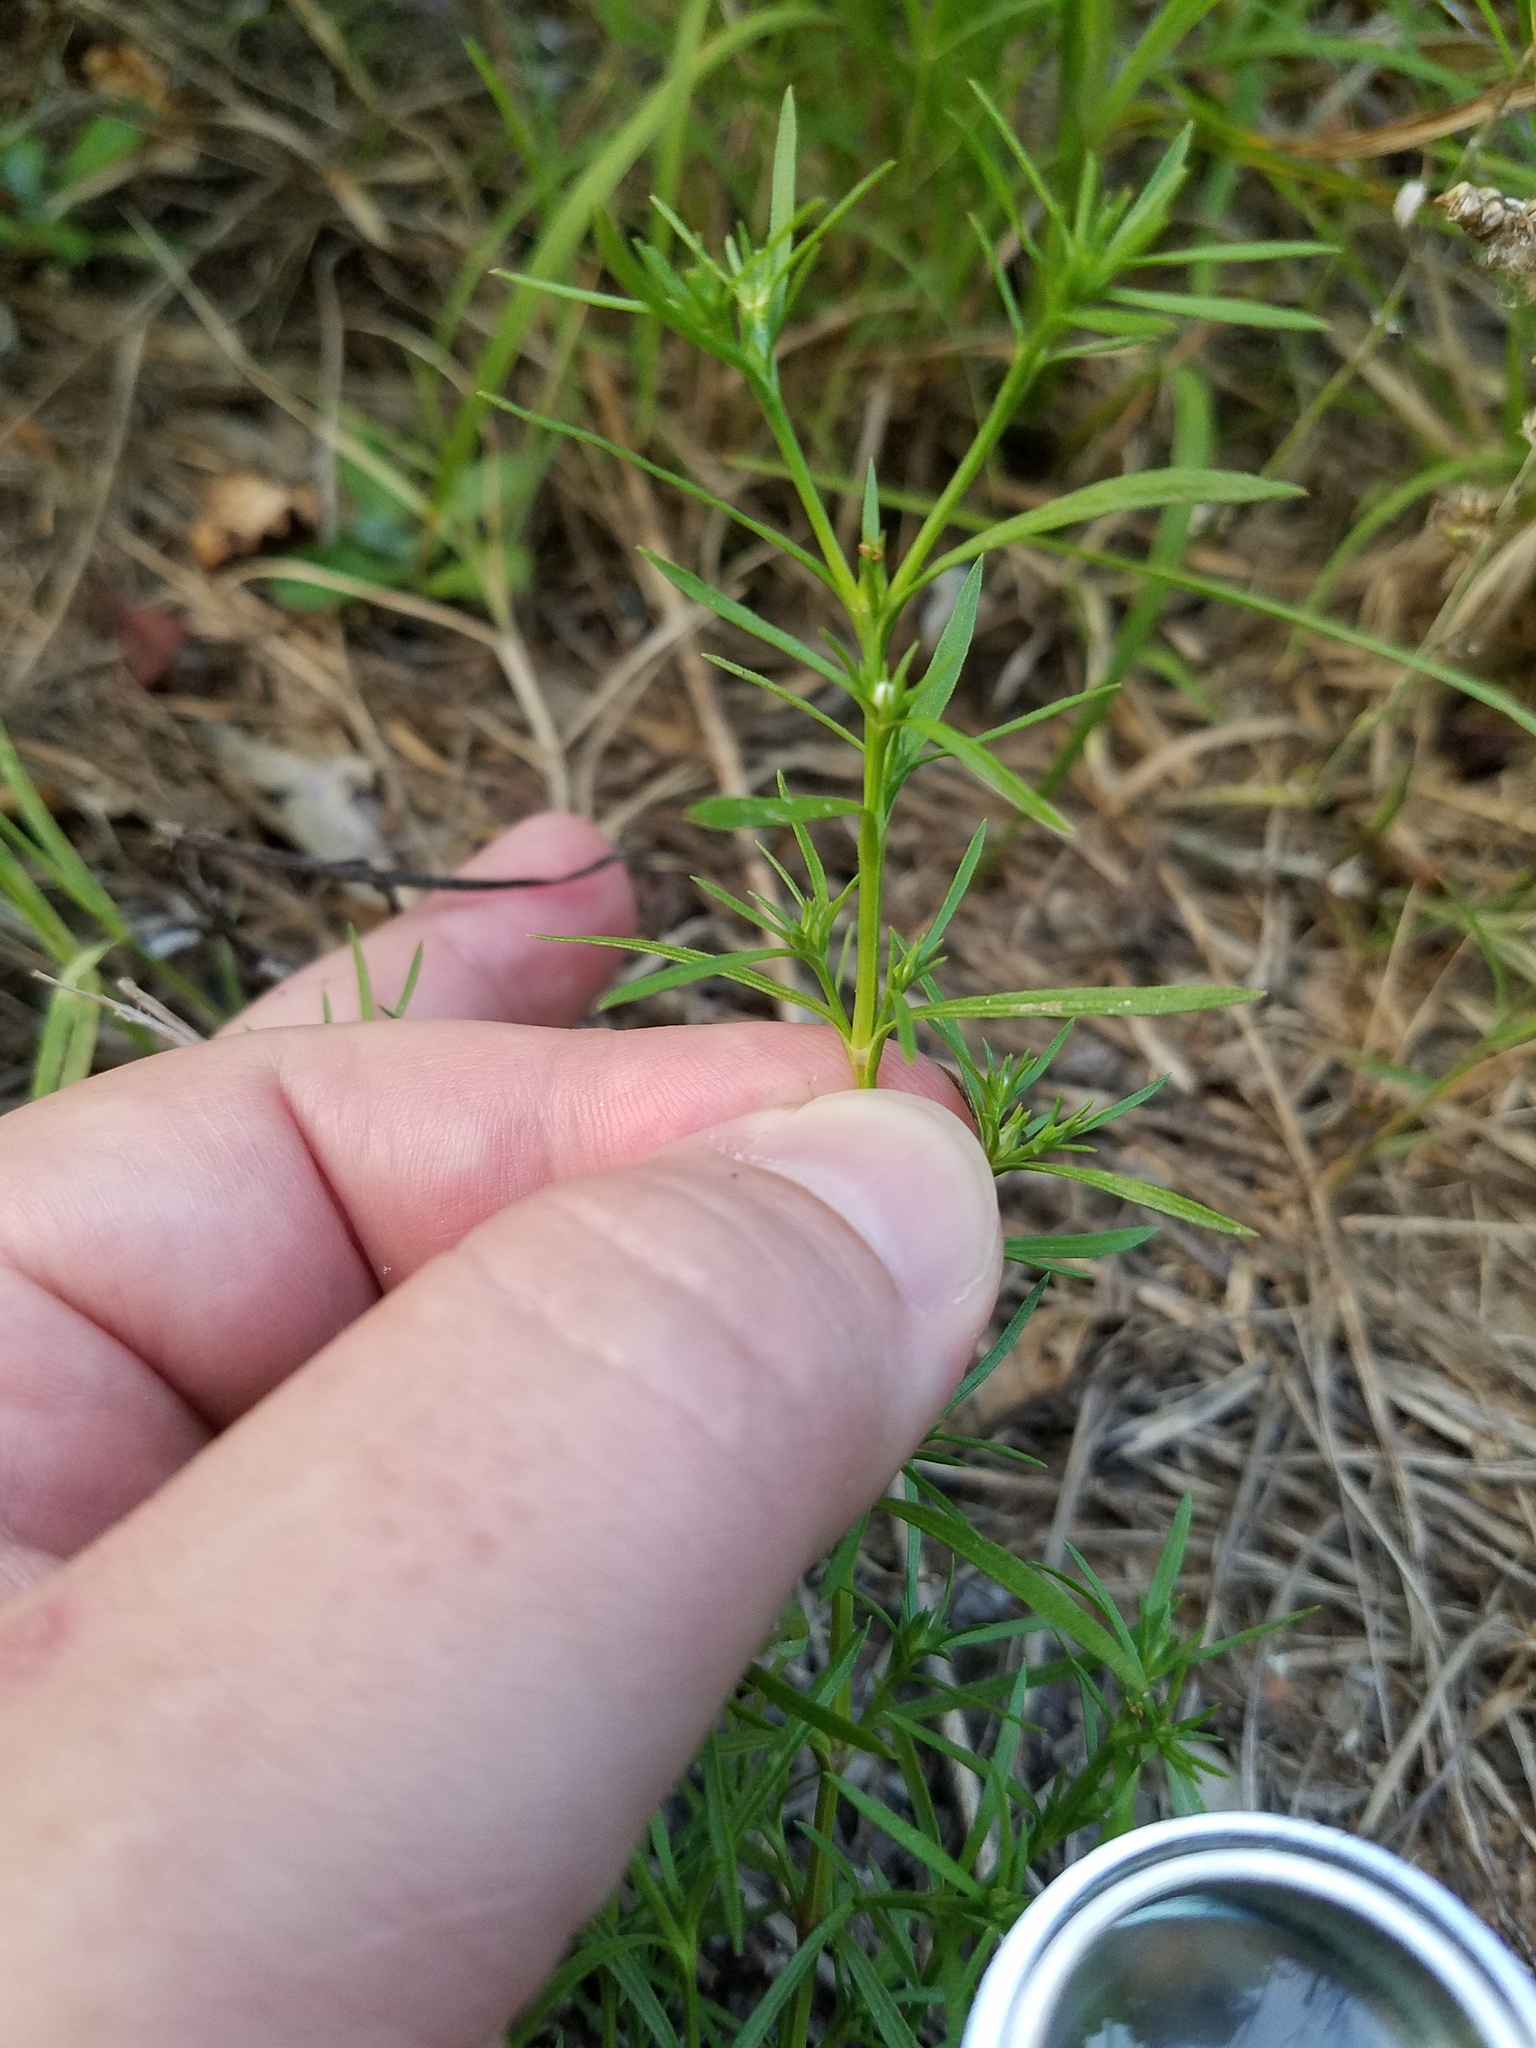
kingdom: Plantae
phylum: Tracheophyta
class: Magnoliopsida
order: Lamiales
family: Tetrachondraceae
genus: Polypremum
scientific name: Polypremum procumbens
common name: Juniper-leaf
